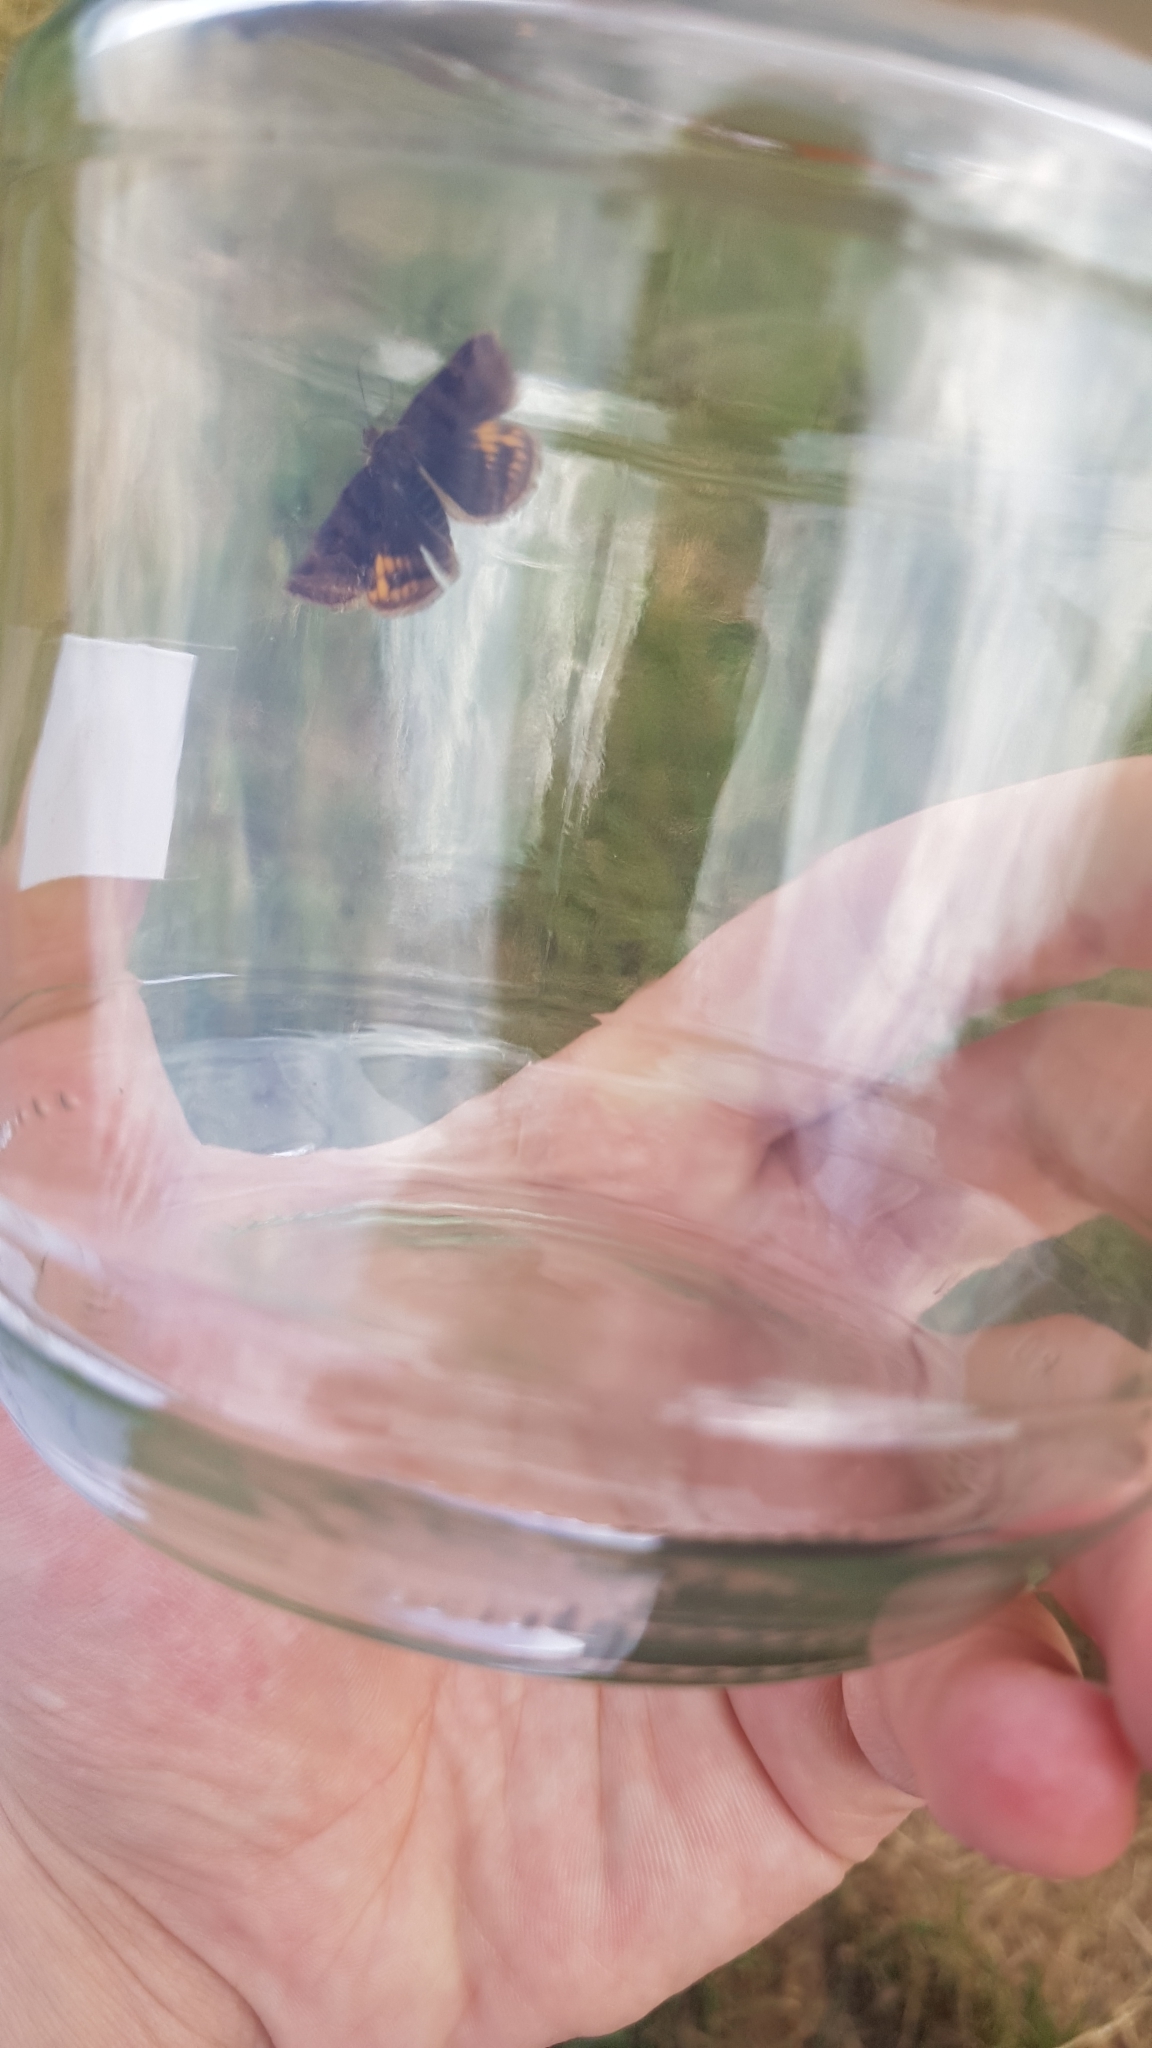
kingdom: Animalia
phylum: Arthropoda
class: Insecta
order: Lepidoptera
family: Erebidae
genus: Euclidia
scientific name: Euclidia glyphica
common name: Burnet companion
